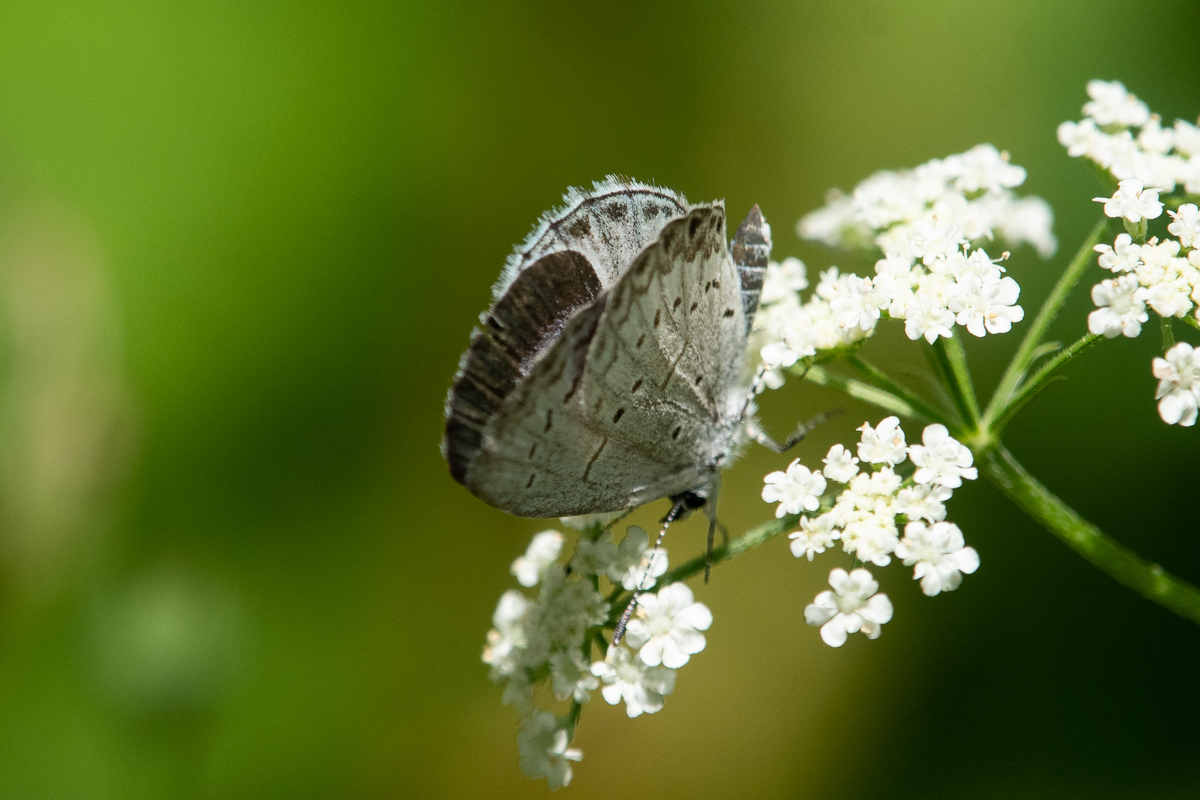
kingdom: Animalia
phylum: Arthropoda
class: Insecta
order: Lepidoptera
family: Lycaenidae
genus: Celastrina
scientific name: Celastrina lucia
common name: Lucia azure
